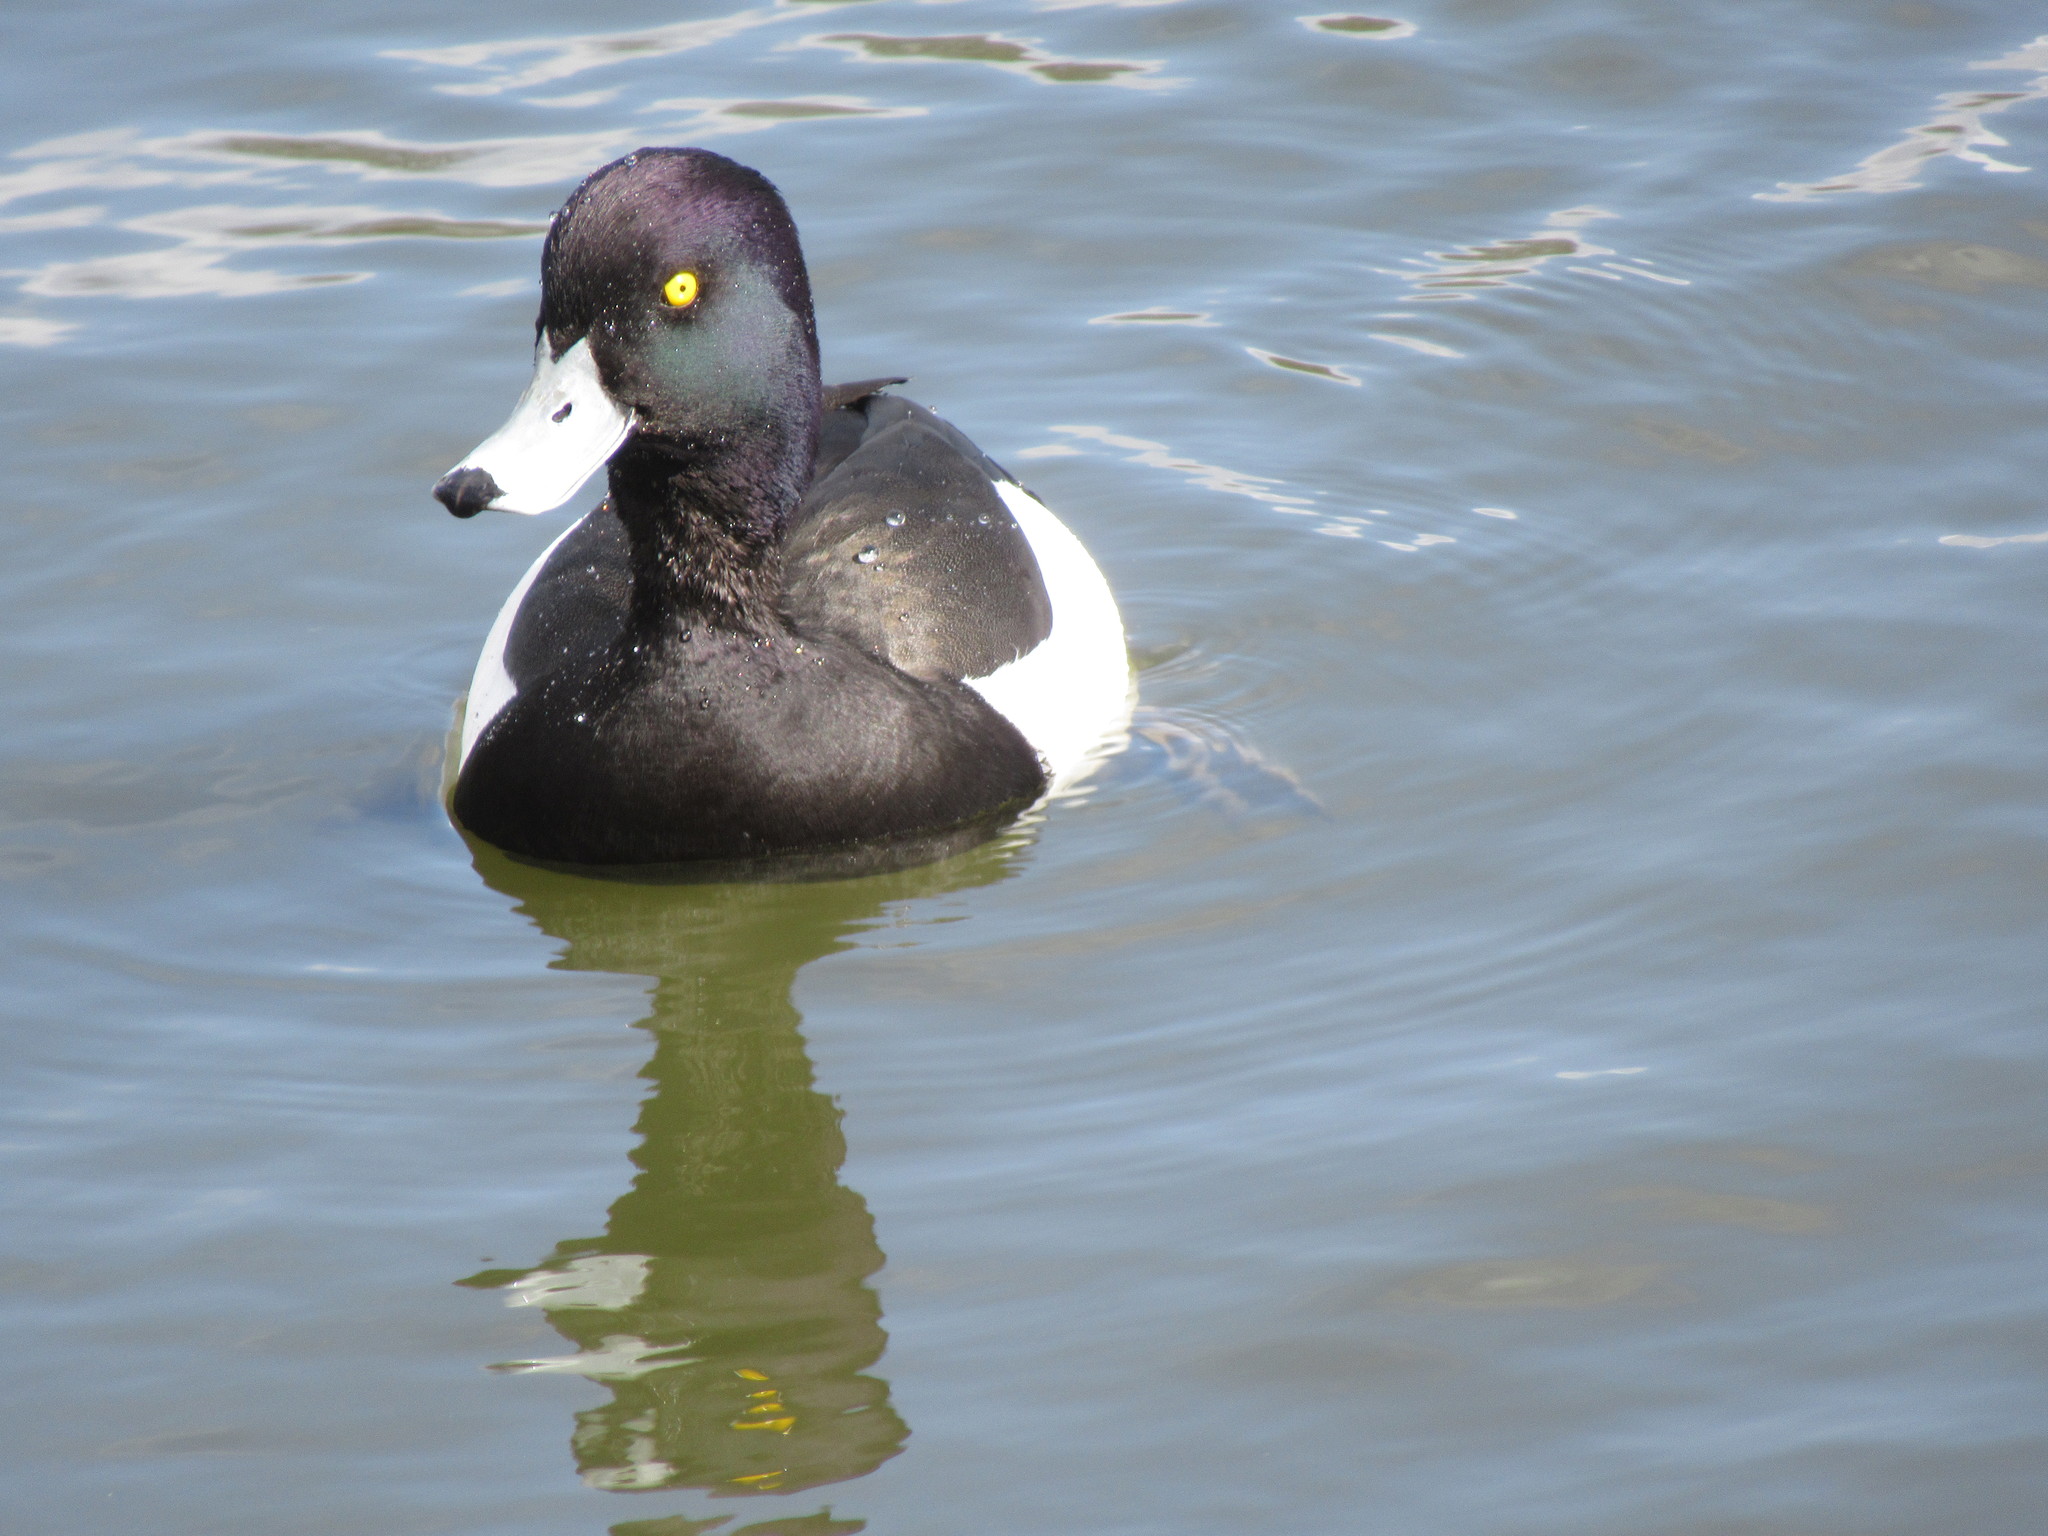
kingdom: Animalia
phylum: Chordata
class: Aves
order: Anseriformes
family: Anatidae
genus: Aythya
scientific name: Aythya fuligula
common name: Tufted duck
